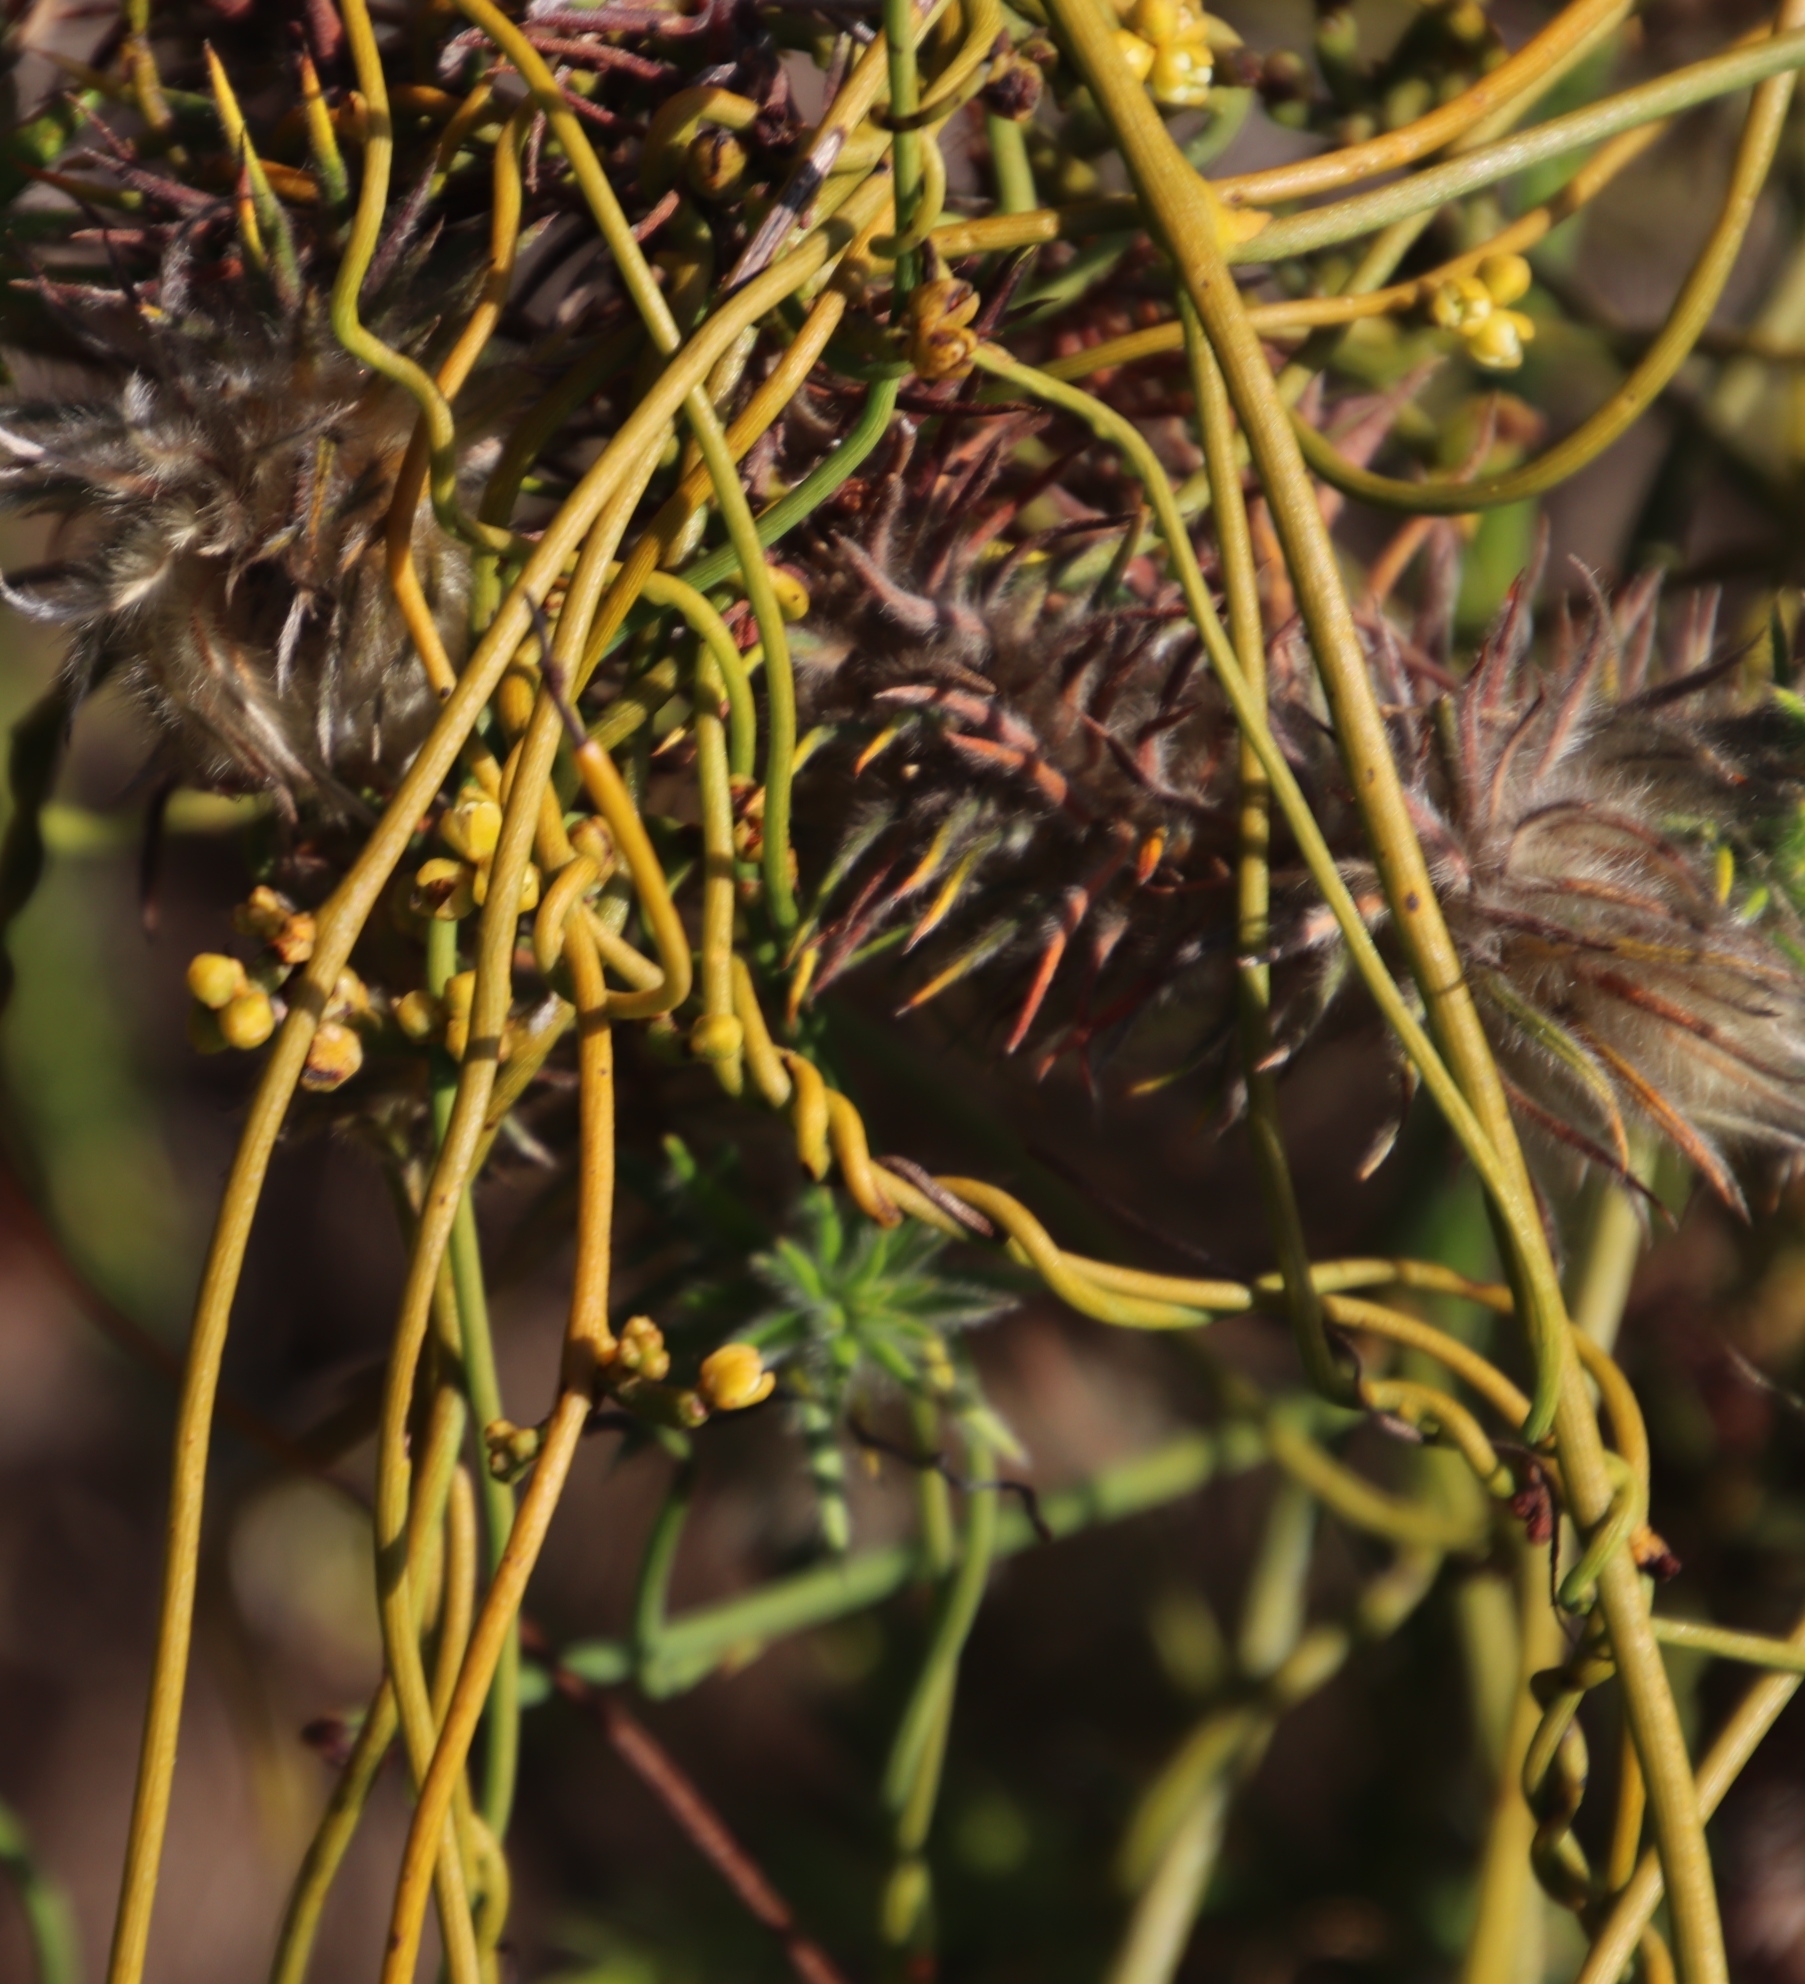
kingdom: Plantae
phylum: Tracheophyta
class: Magnoliopsida
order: Laurales
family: Lauraceae
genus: Cassytha
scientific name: Cassytha ciliolata
